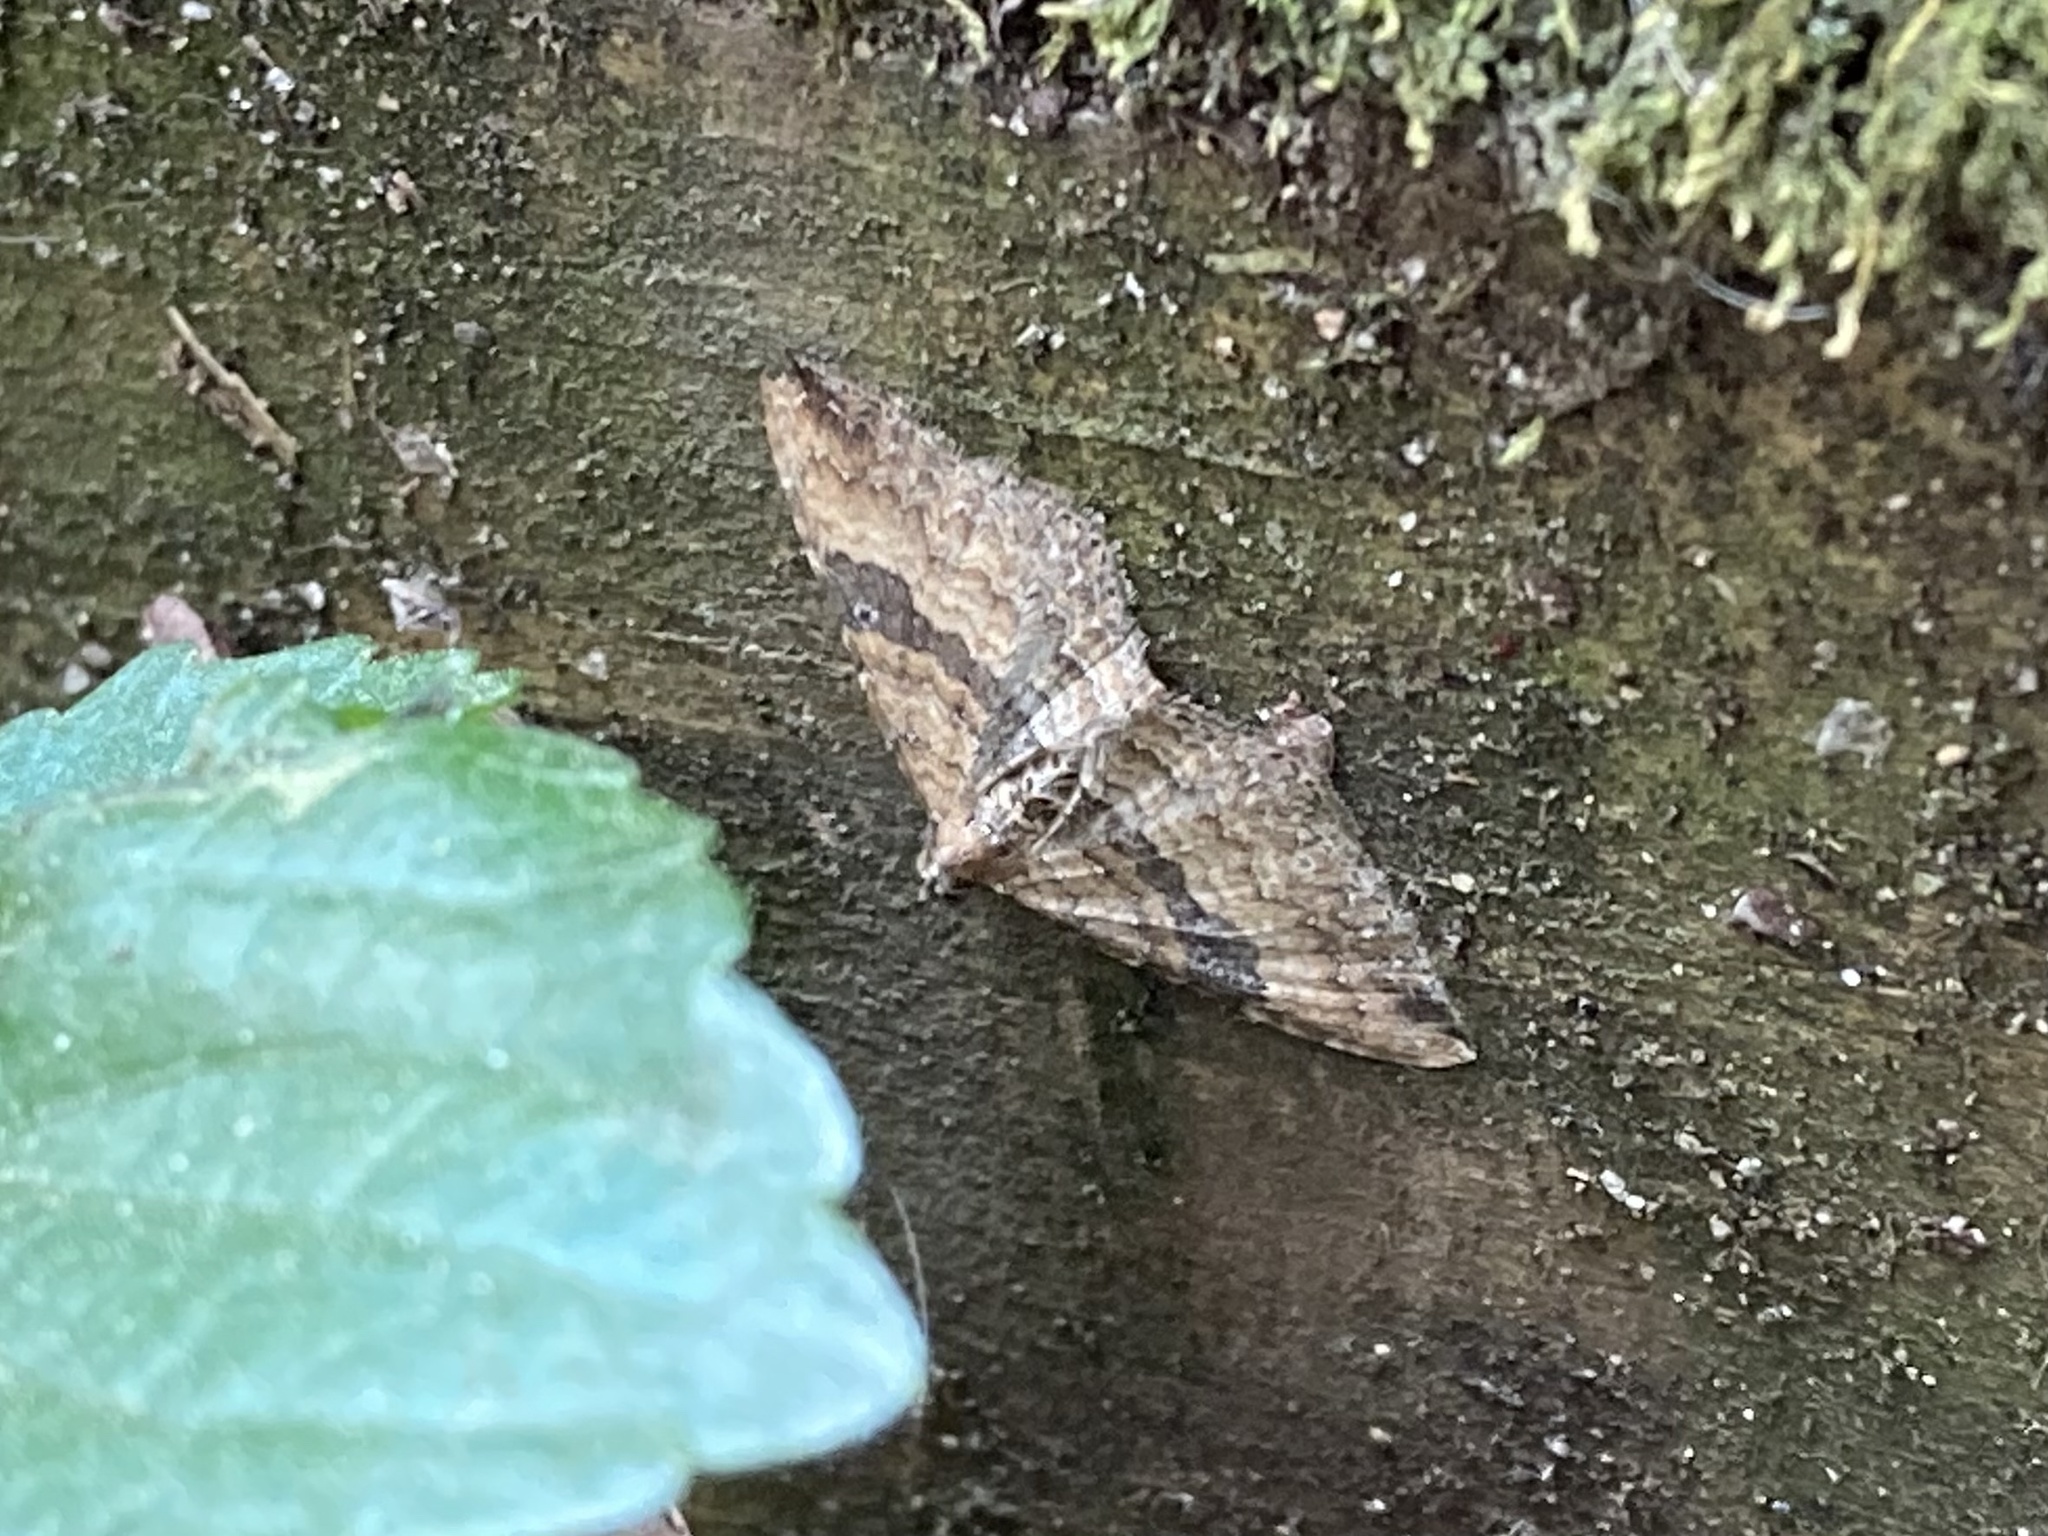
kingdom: Animalia
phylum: Arthropoda
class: Insecta
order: Lepidoptera
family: Geometridae
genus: Orthonama
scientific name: Orthonama obstipata
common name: The gem
